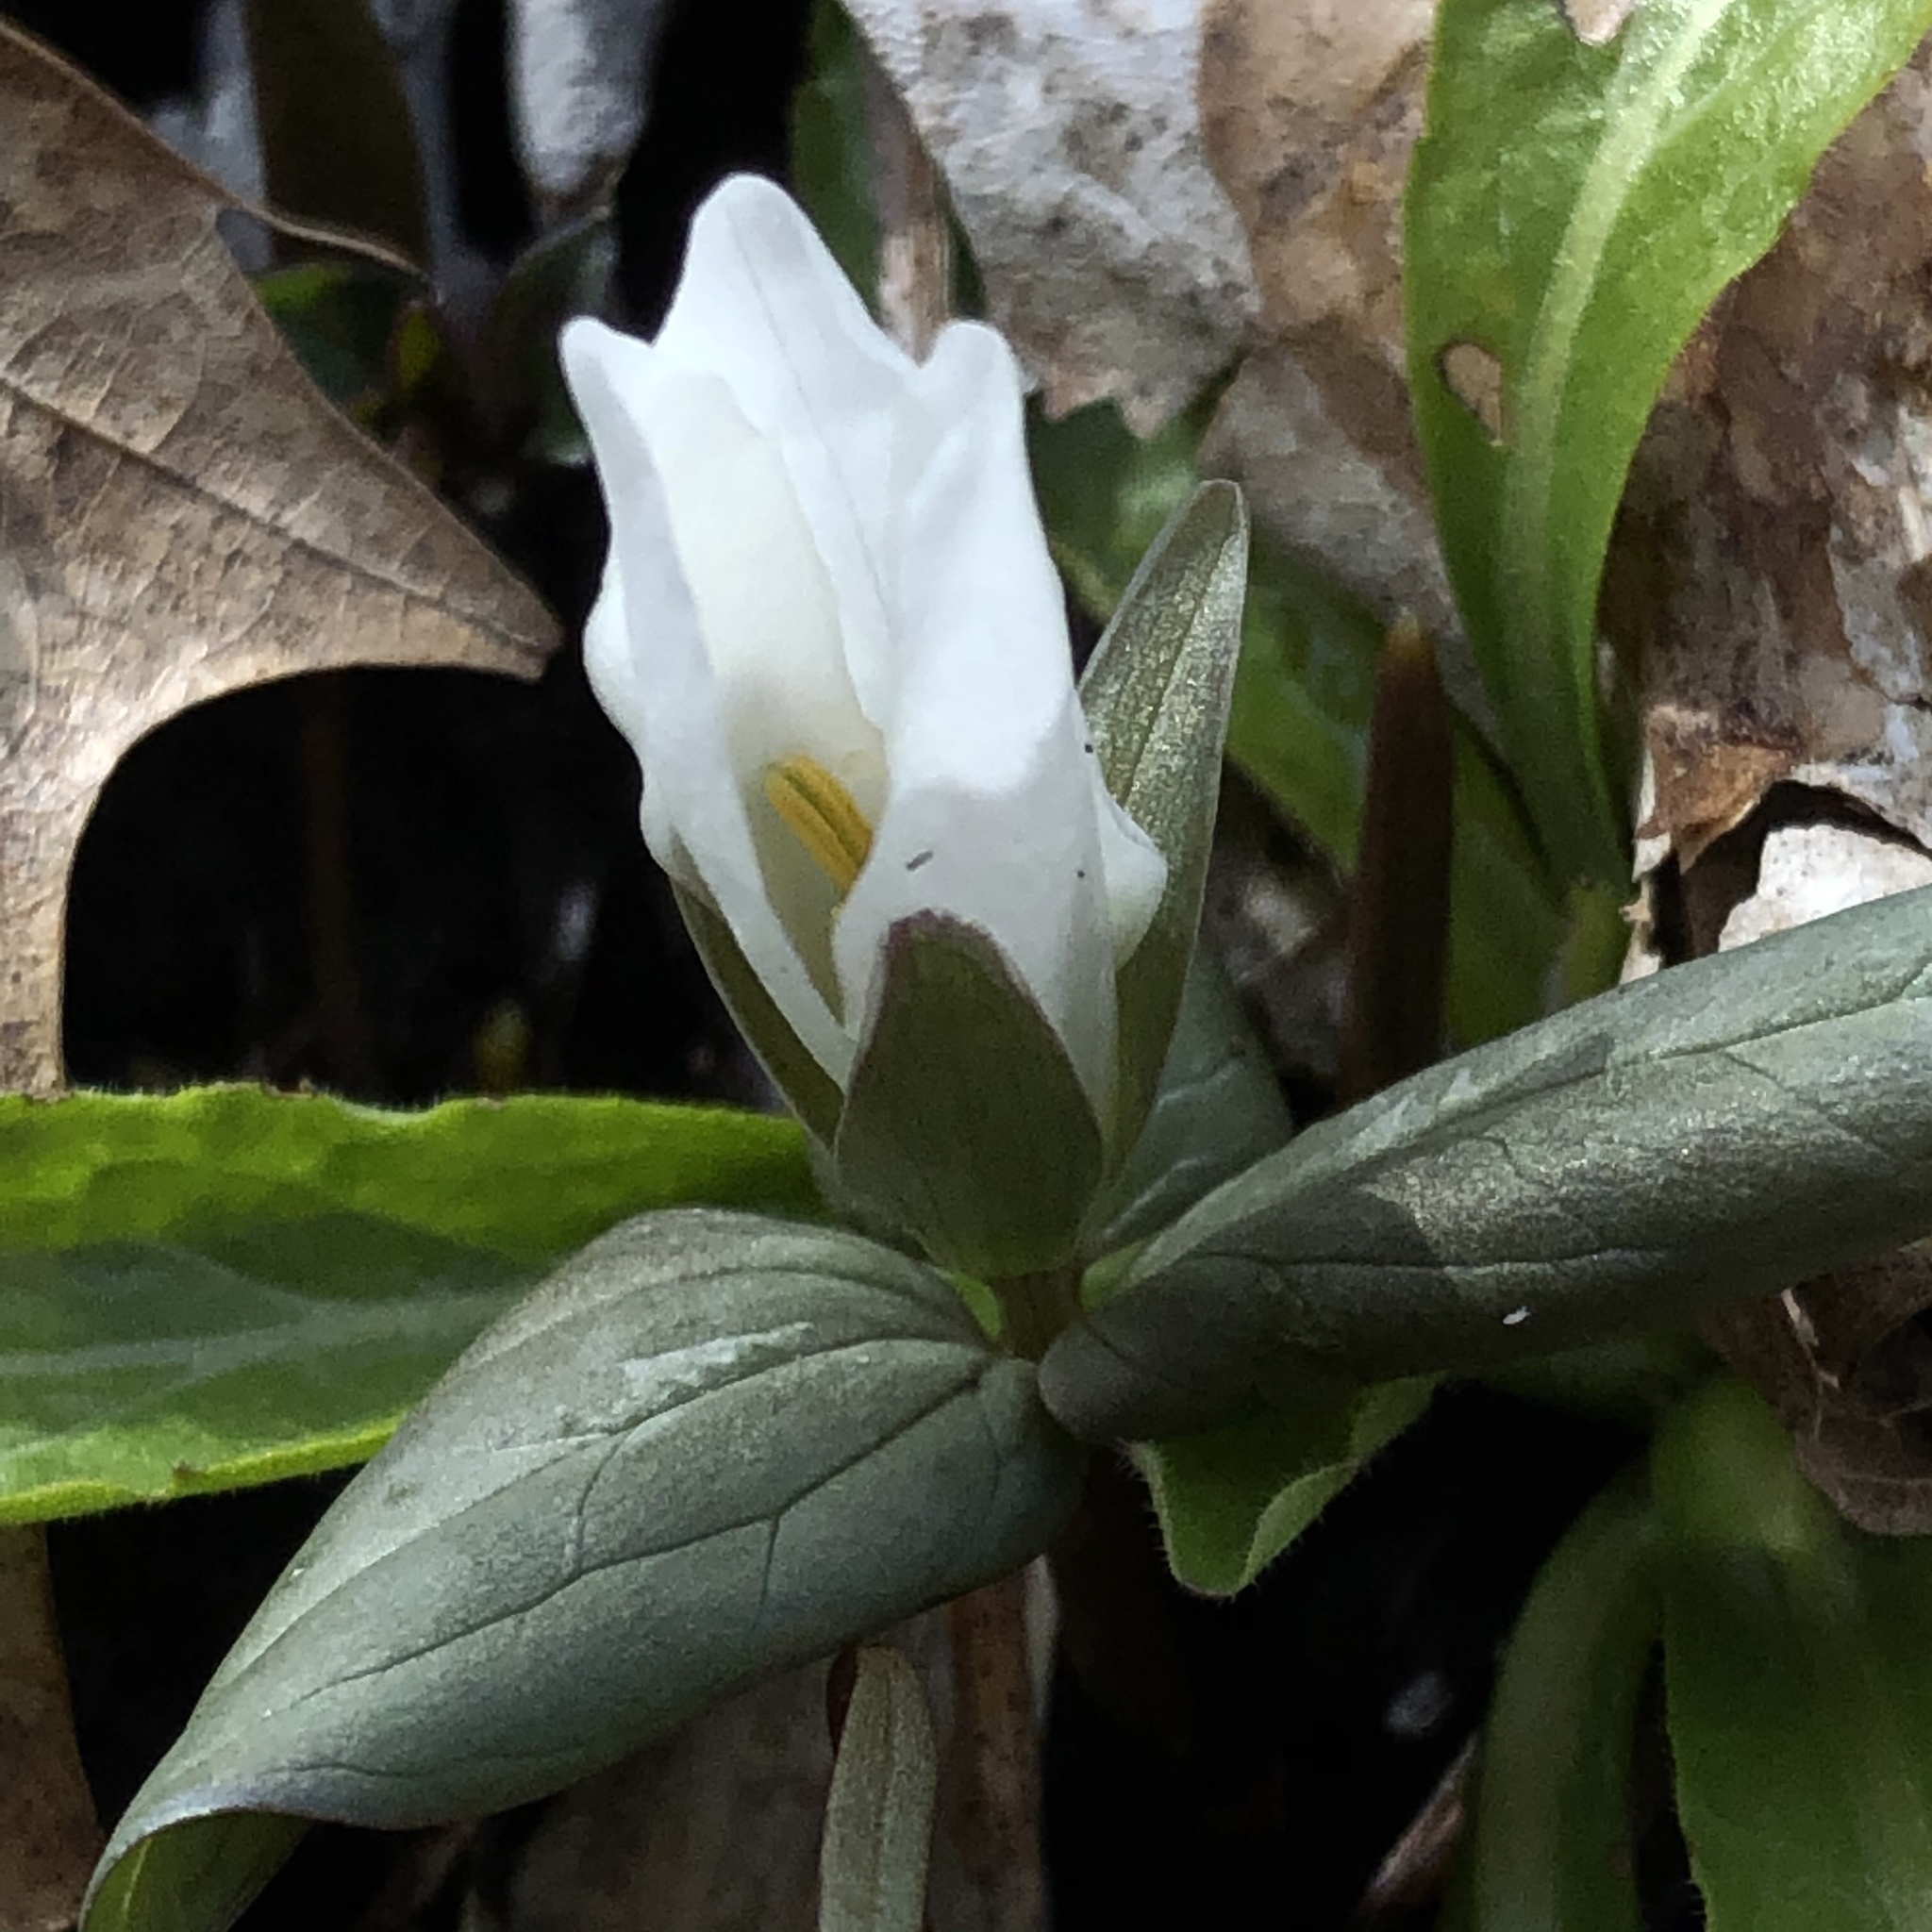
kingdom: Plantae
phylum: Tracheophyta
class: Liliopsida
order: Liliales
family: Melanthiaceae
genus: Trillium
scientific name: Trillium nivale
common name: Dwarf white trillium
